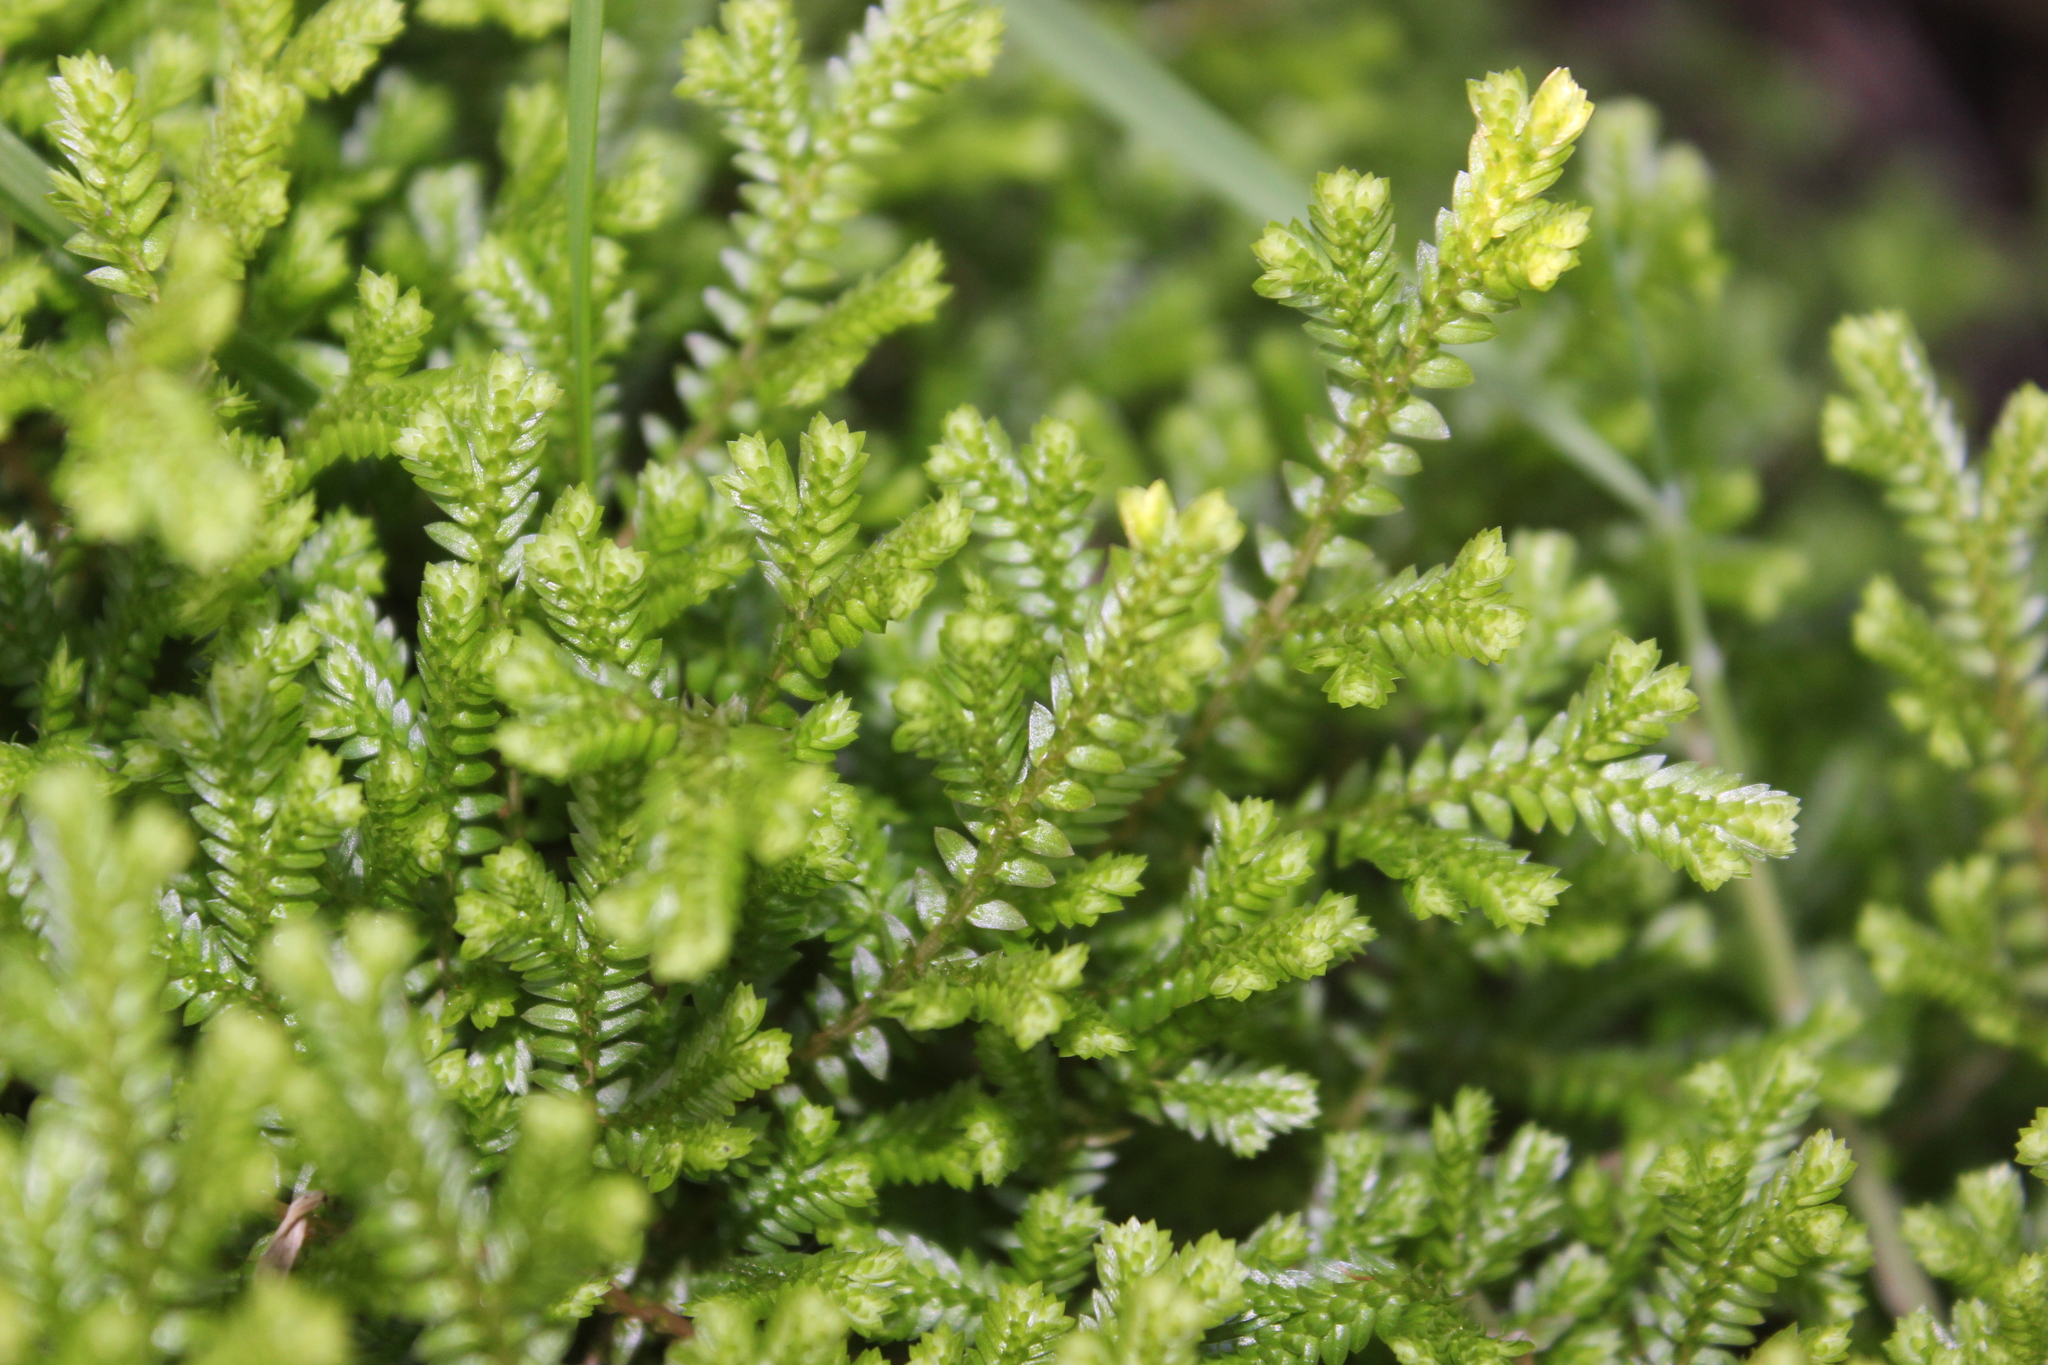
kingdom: Plantae
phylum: Tracheophyta
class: Lycopodiopsida
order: Selaginellales
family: Selaginellaceae
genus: Selaginella
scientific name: Selaginella kraussiana
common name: Krauss' spikemoss
